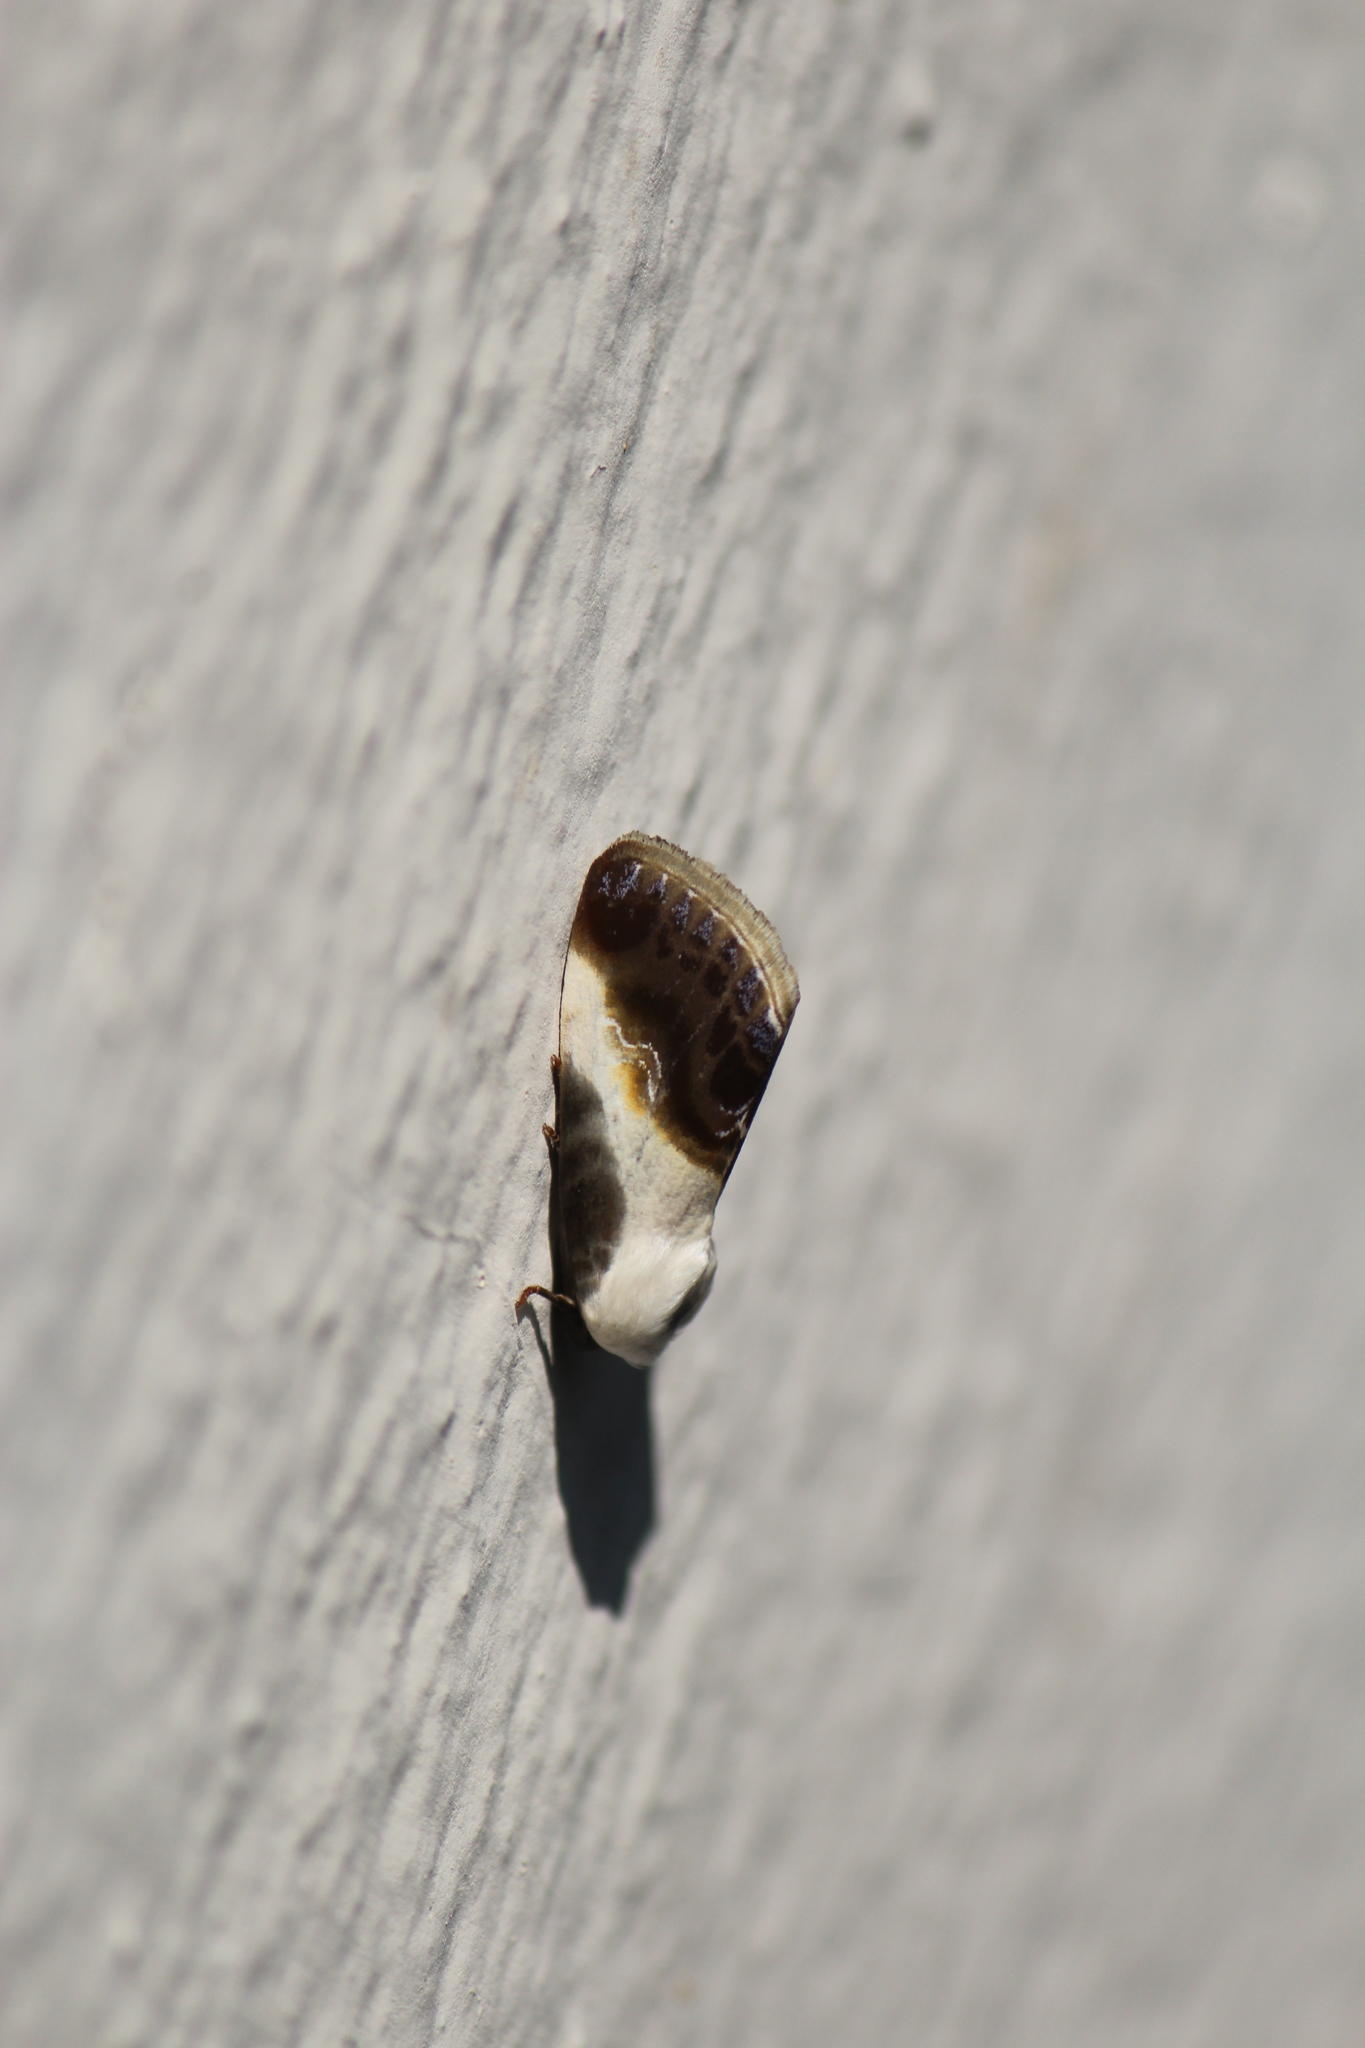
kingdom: Animalia
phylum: Arthropoda
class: Insecta
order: Lepidoptera
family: Noctuidae
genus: Acontia
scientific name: Acontia jaliscana
